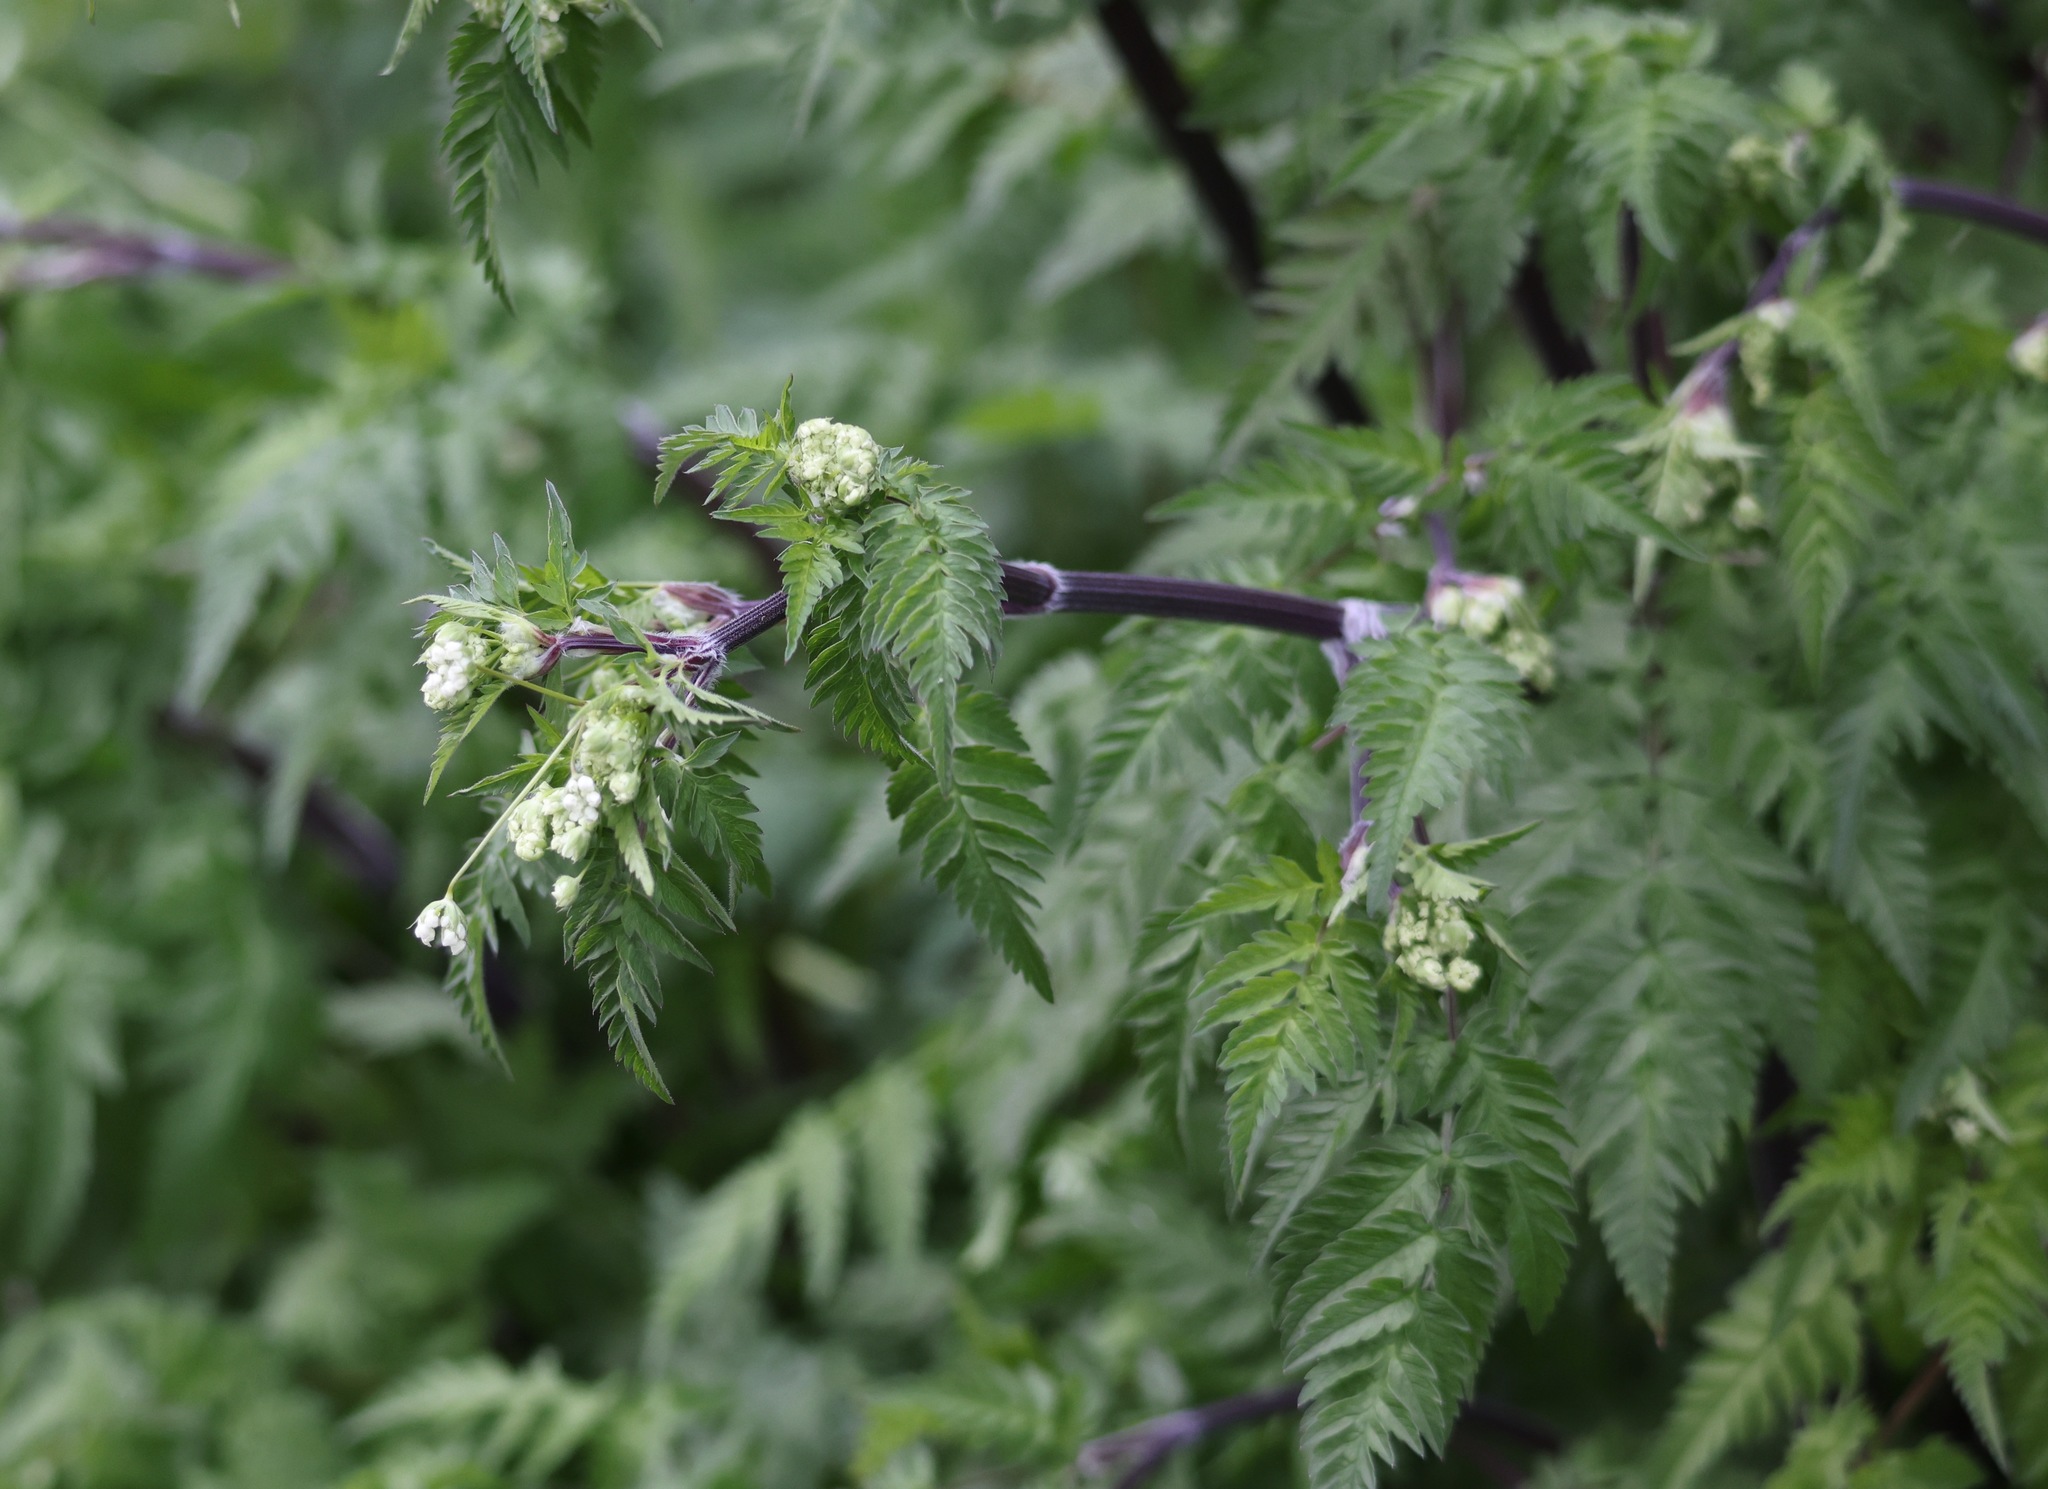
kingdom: Plantae
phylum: Tracheophyta
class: Magnoliopsida
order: Apiales
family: Apiaceae
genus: Anthriscus
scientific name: Anthriscus sylvestris
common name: Cow parsley
